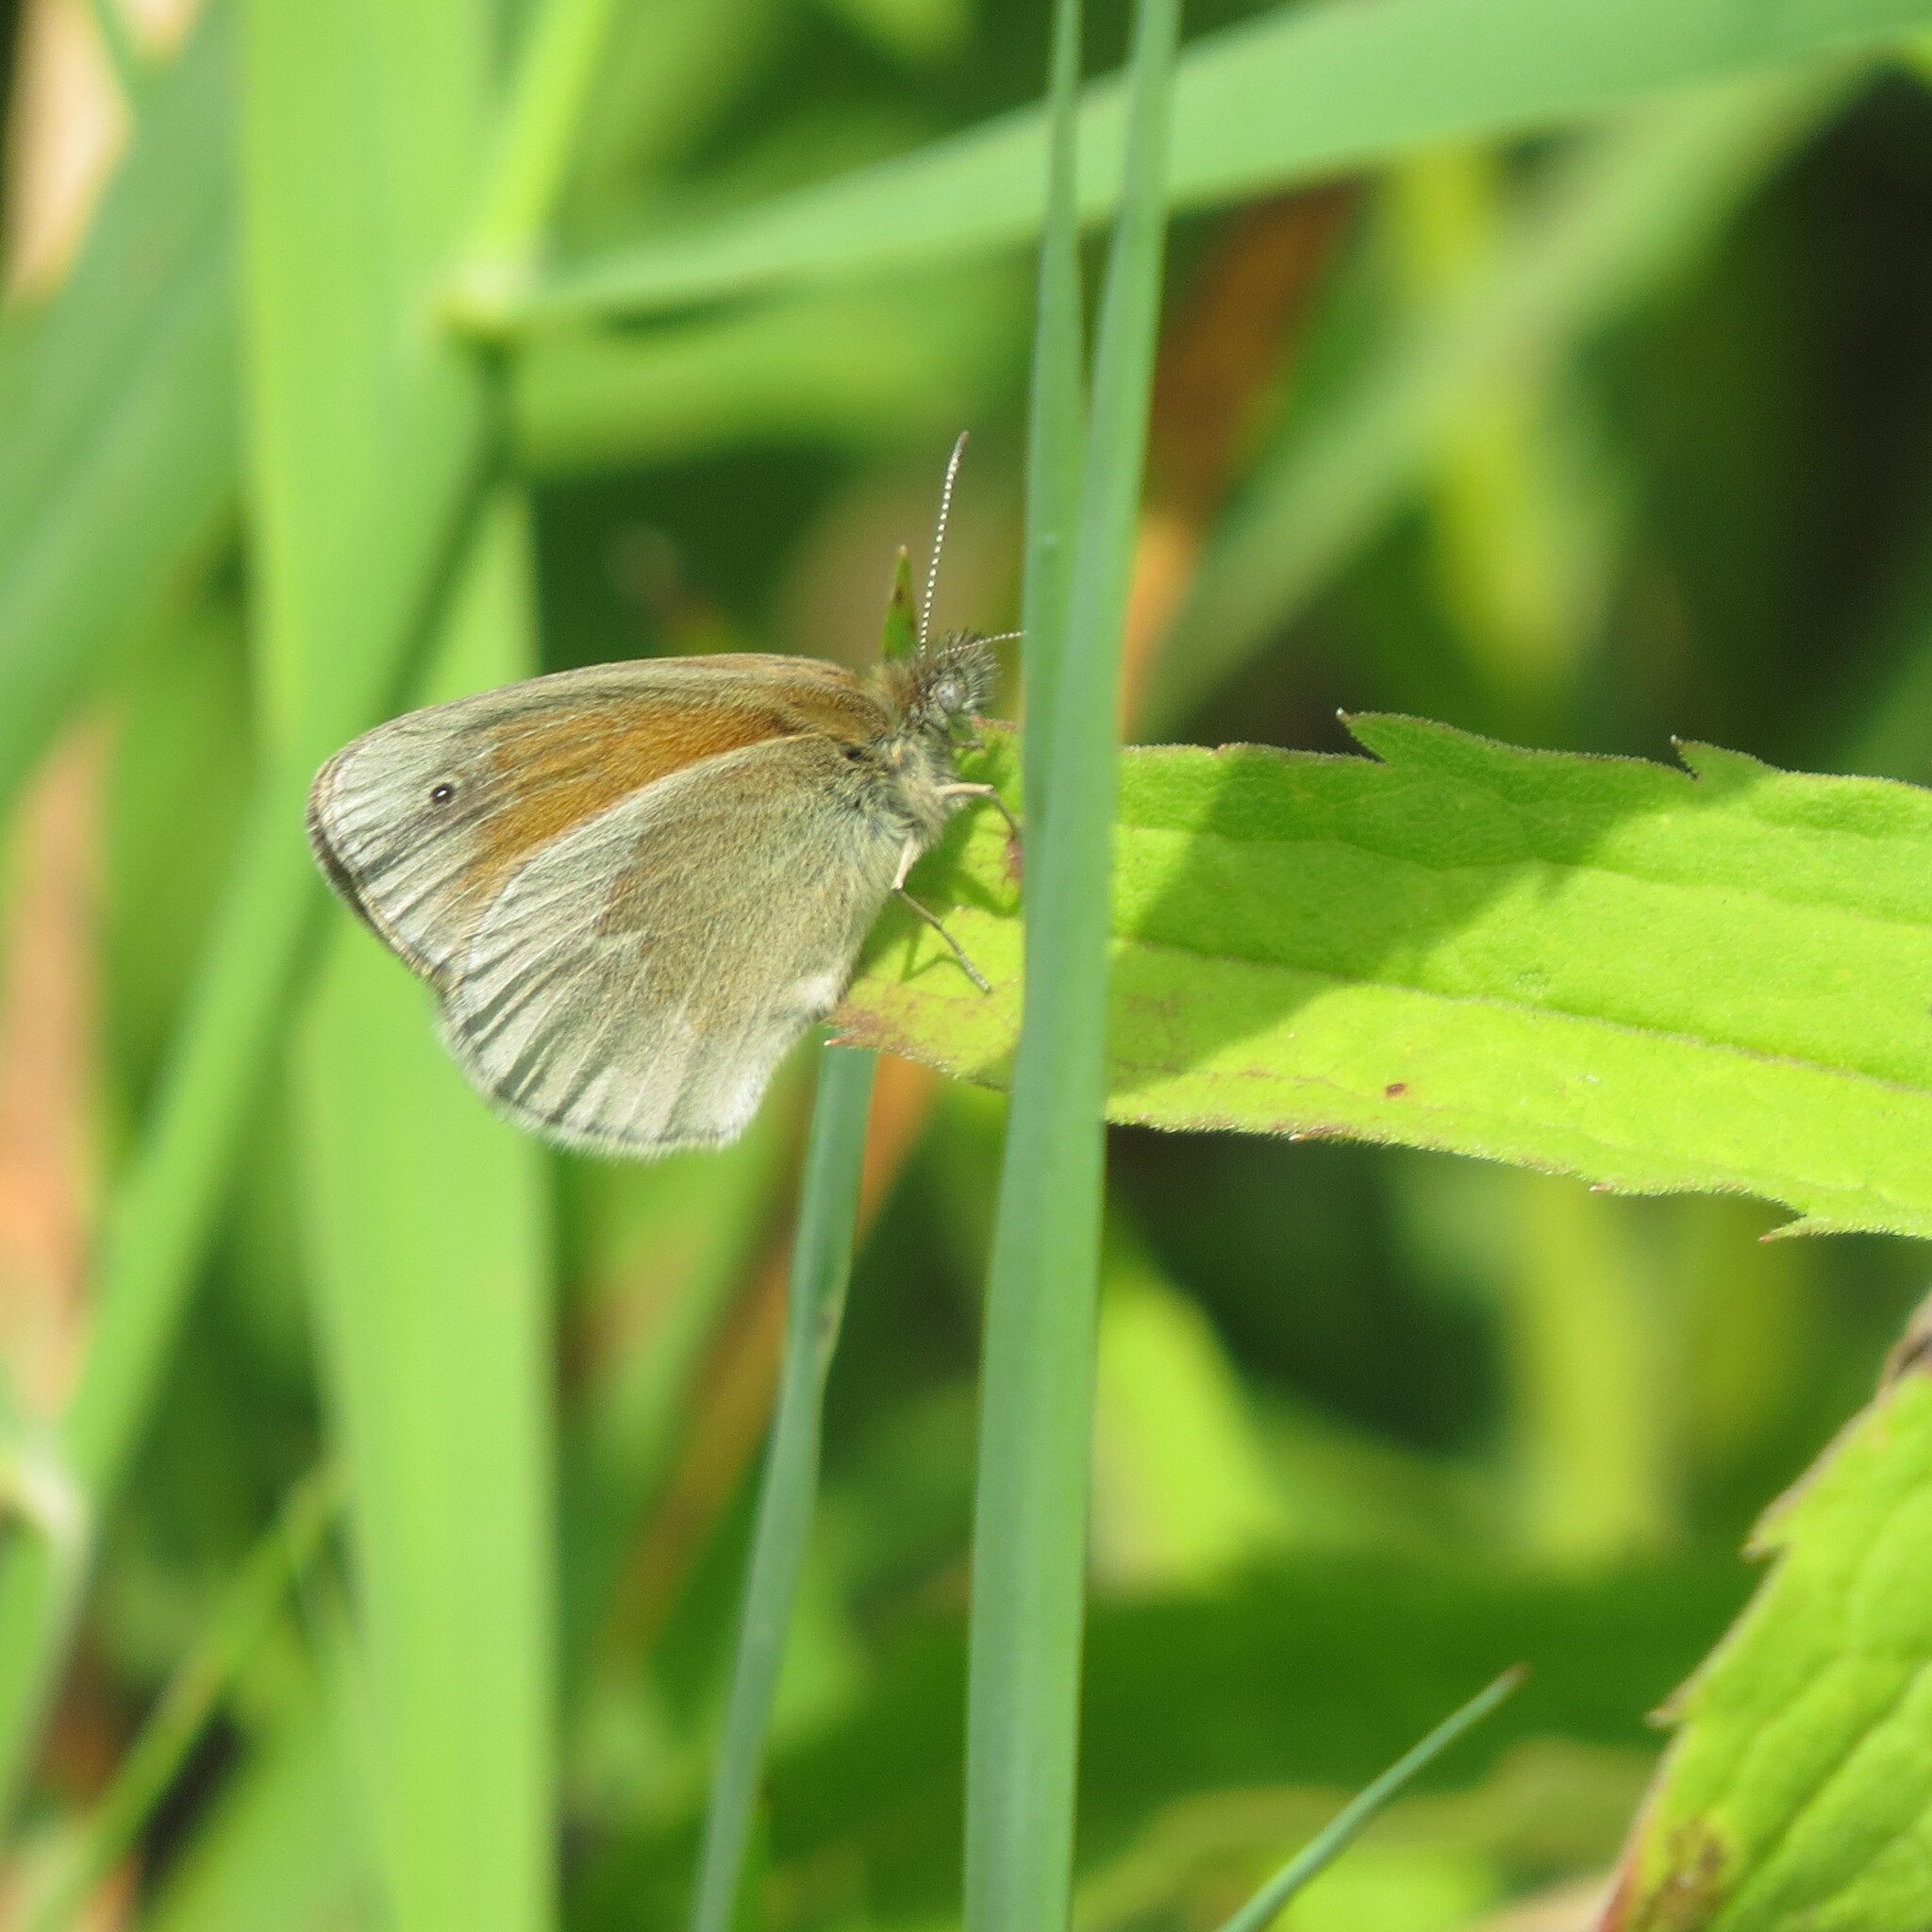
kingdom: Animalia
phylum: Arthropoda
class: Insecta
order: Lepidoptera
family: Nymphalidae
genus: Coenonympha
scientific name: Coenonympha california
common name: Common ringlet
